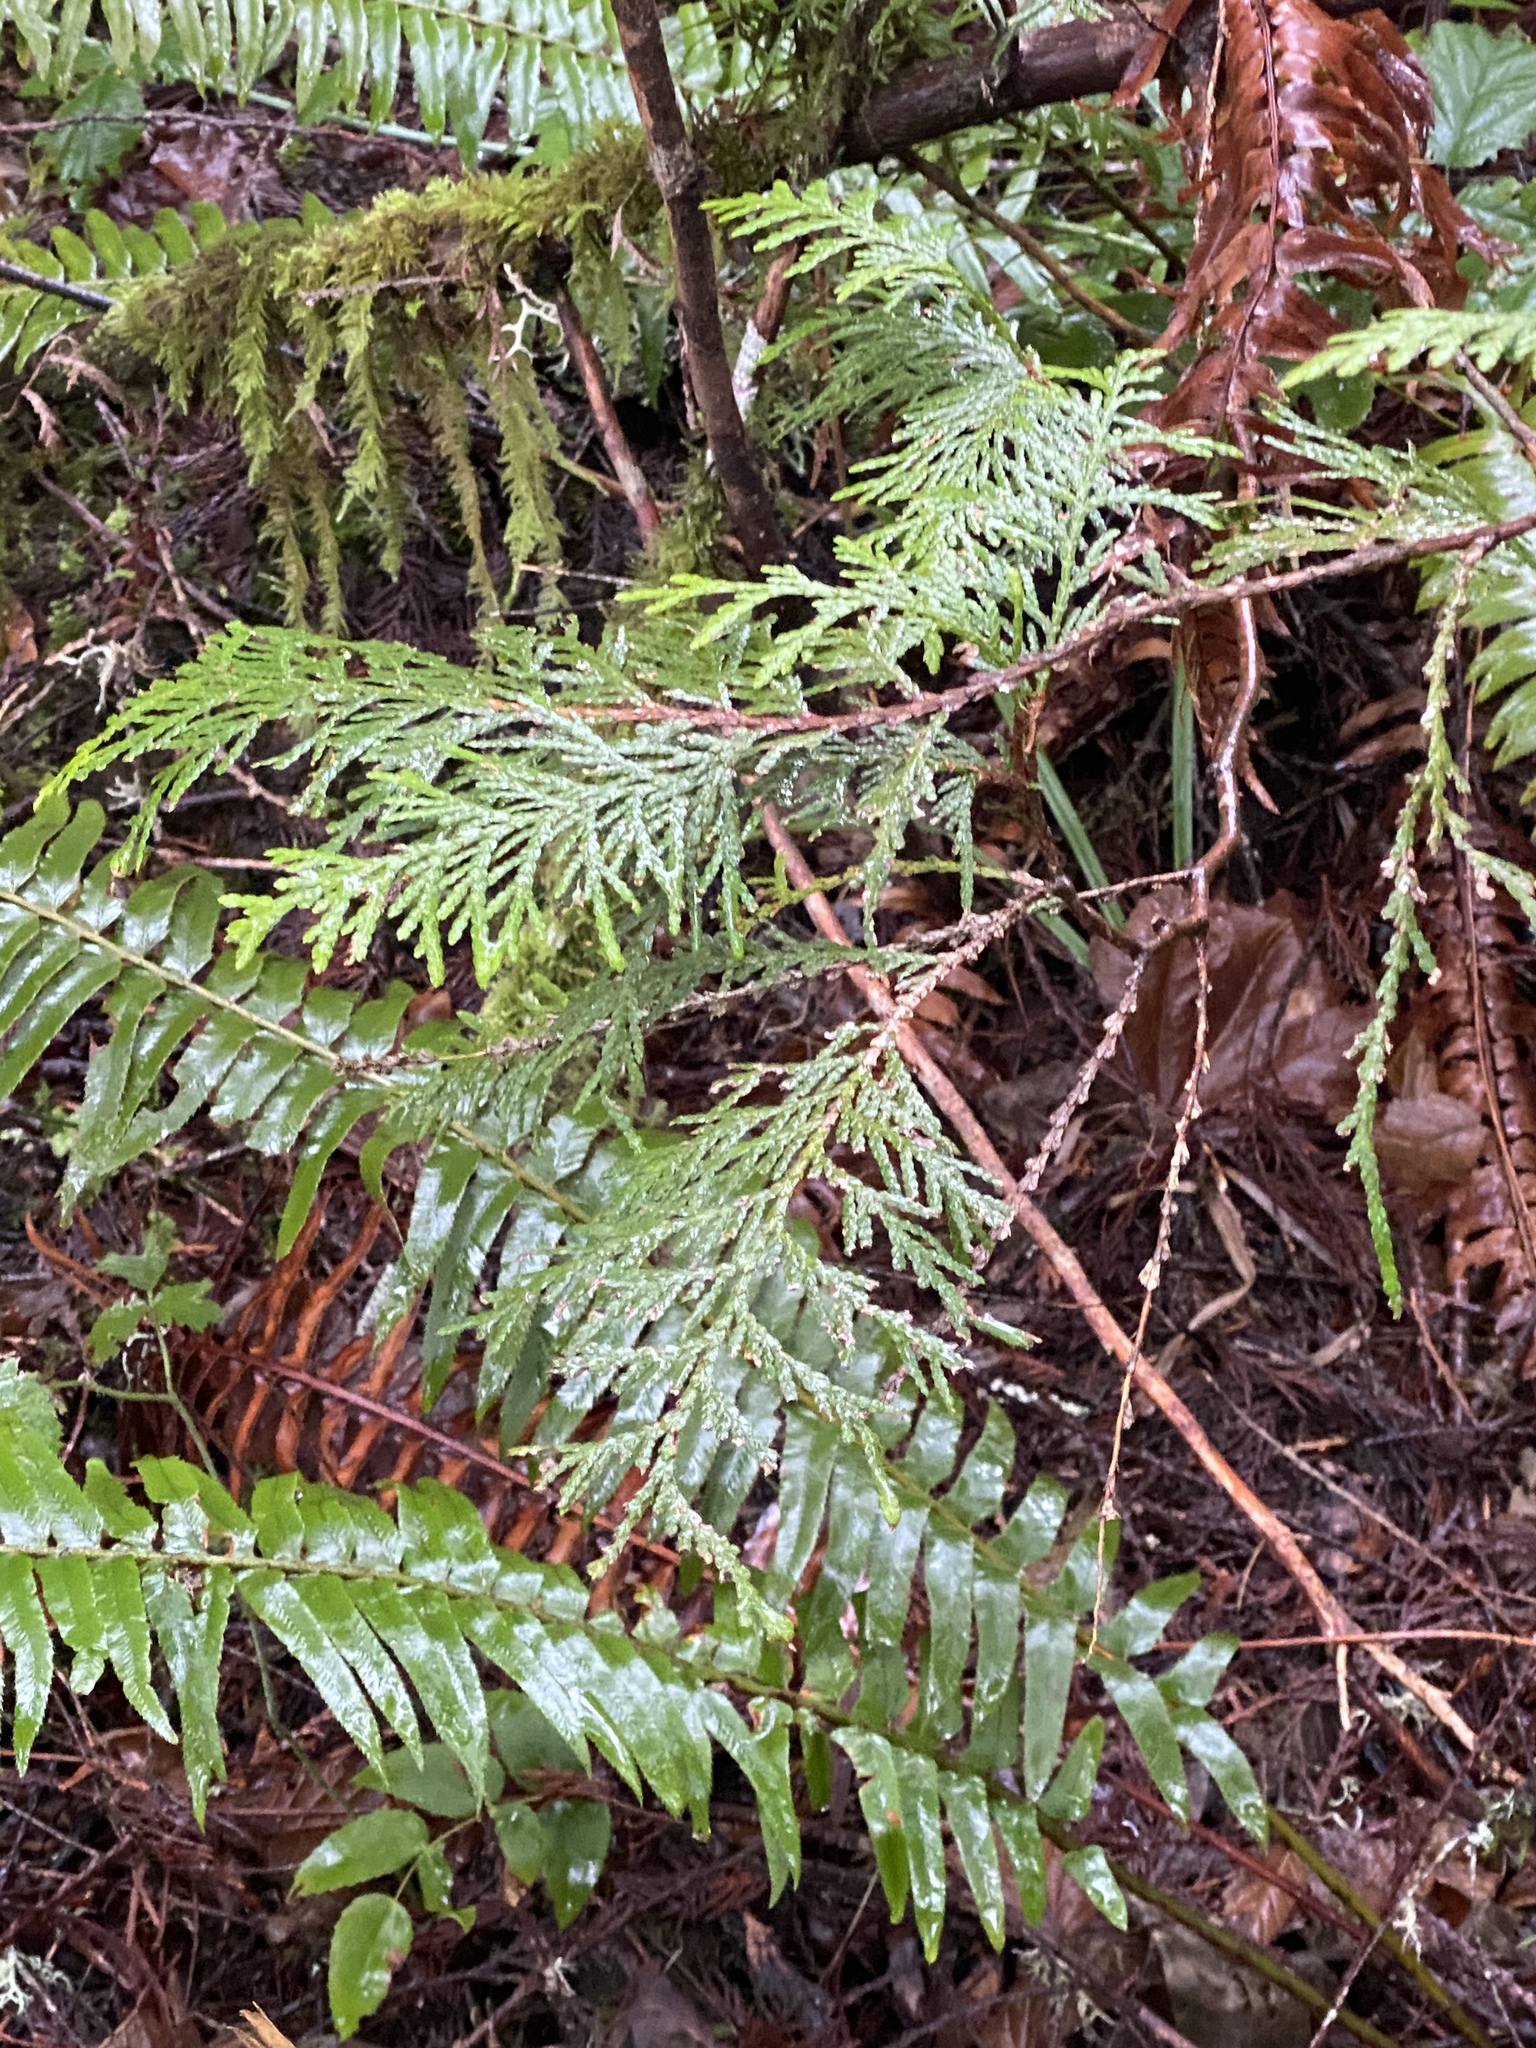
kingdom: Plantae
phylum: Tracheophyta
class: Pinopsida
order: Pinales
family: Cupressaceae
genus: Thuja
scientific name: Thuja plicata
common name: Western red-cedar
